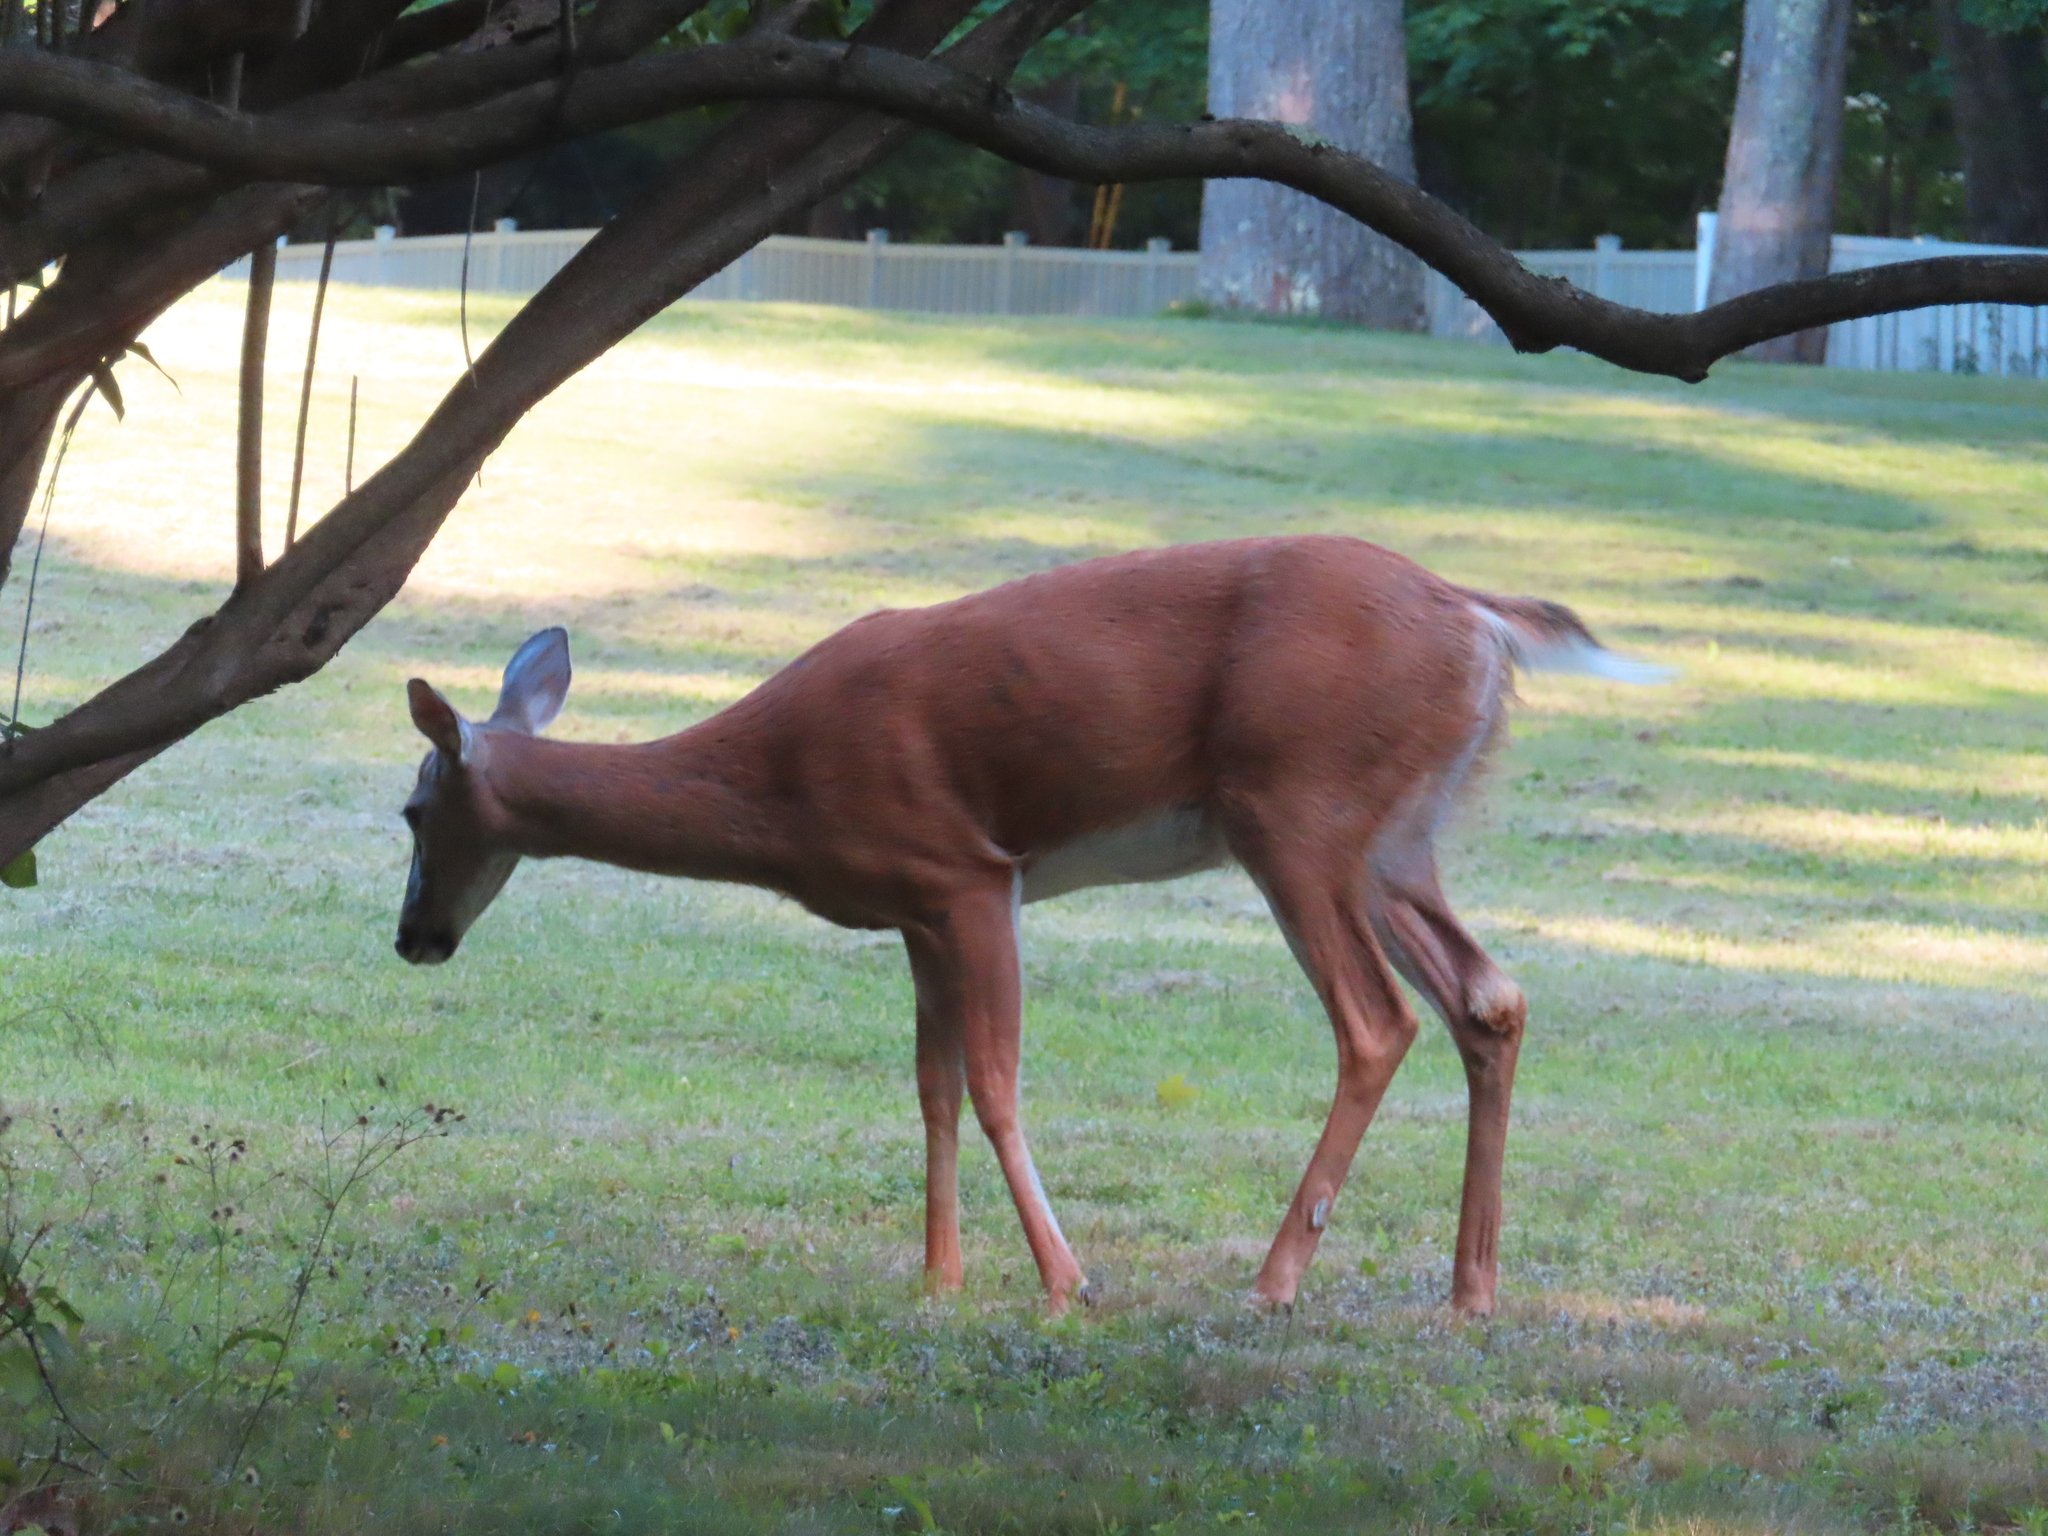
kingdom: Animalia
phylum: Chordata
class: Mammalia
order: Artiodactyla
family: Cervidae
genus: Odocoileus
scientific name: Odocoileus virginianus
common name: White-tailed deer
